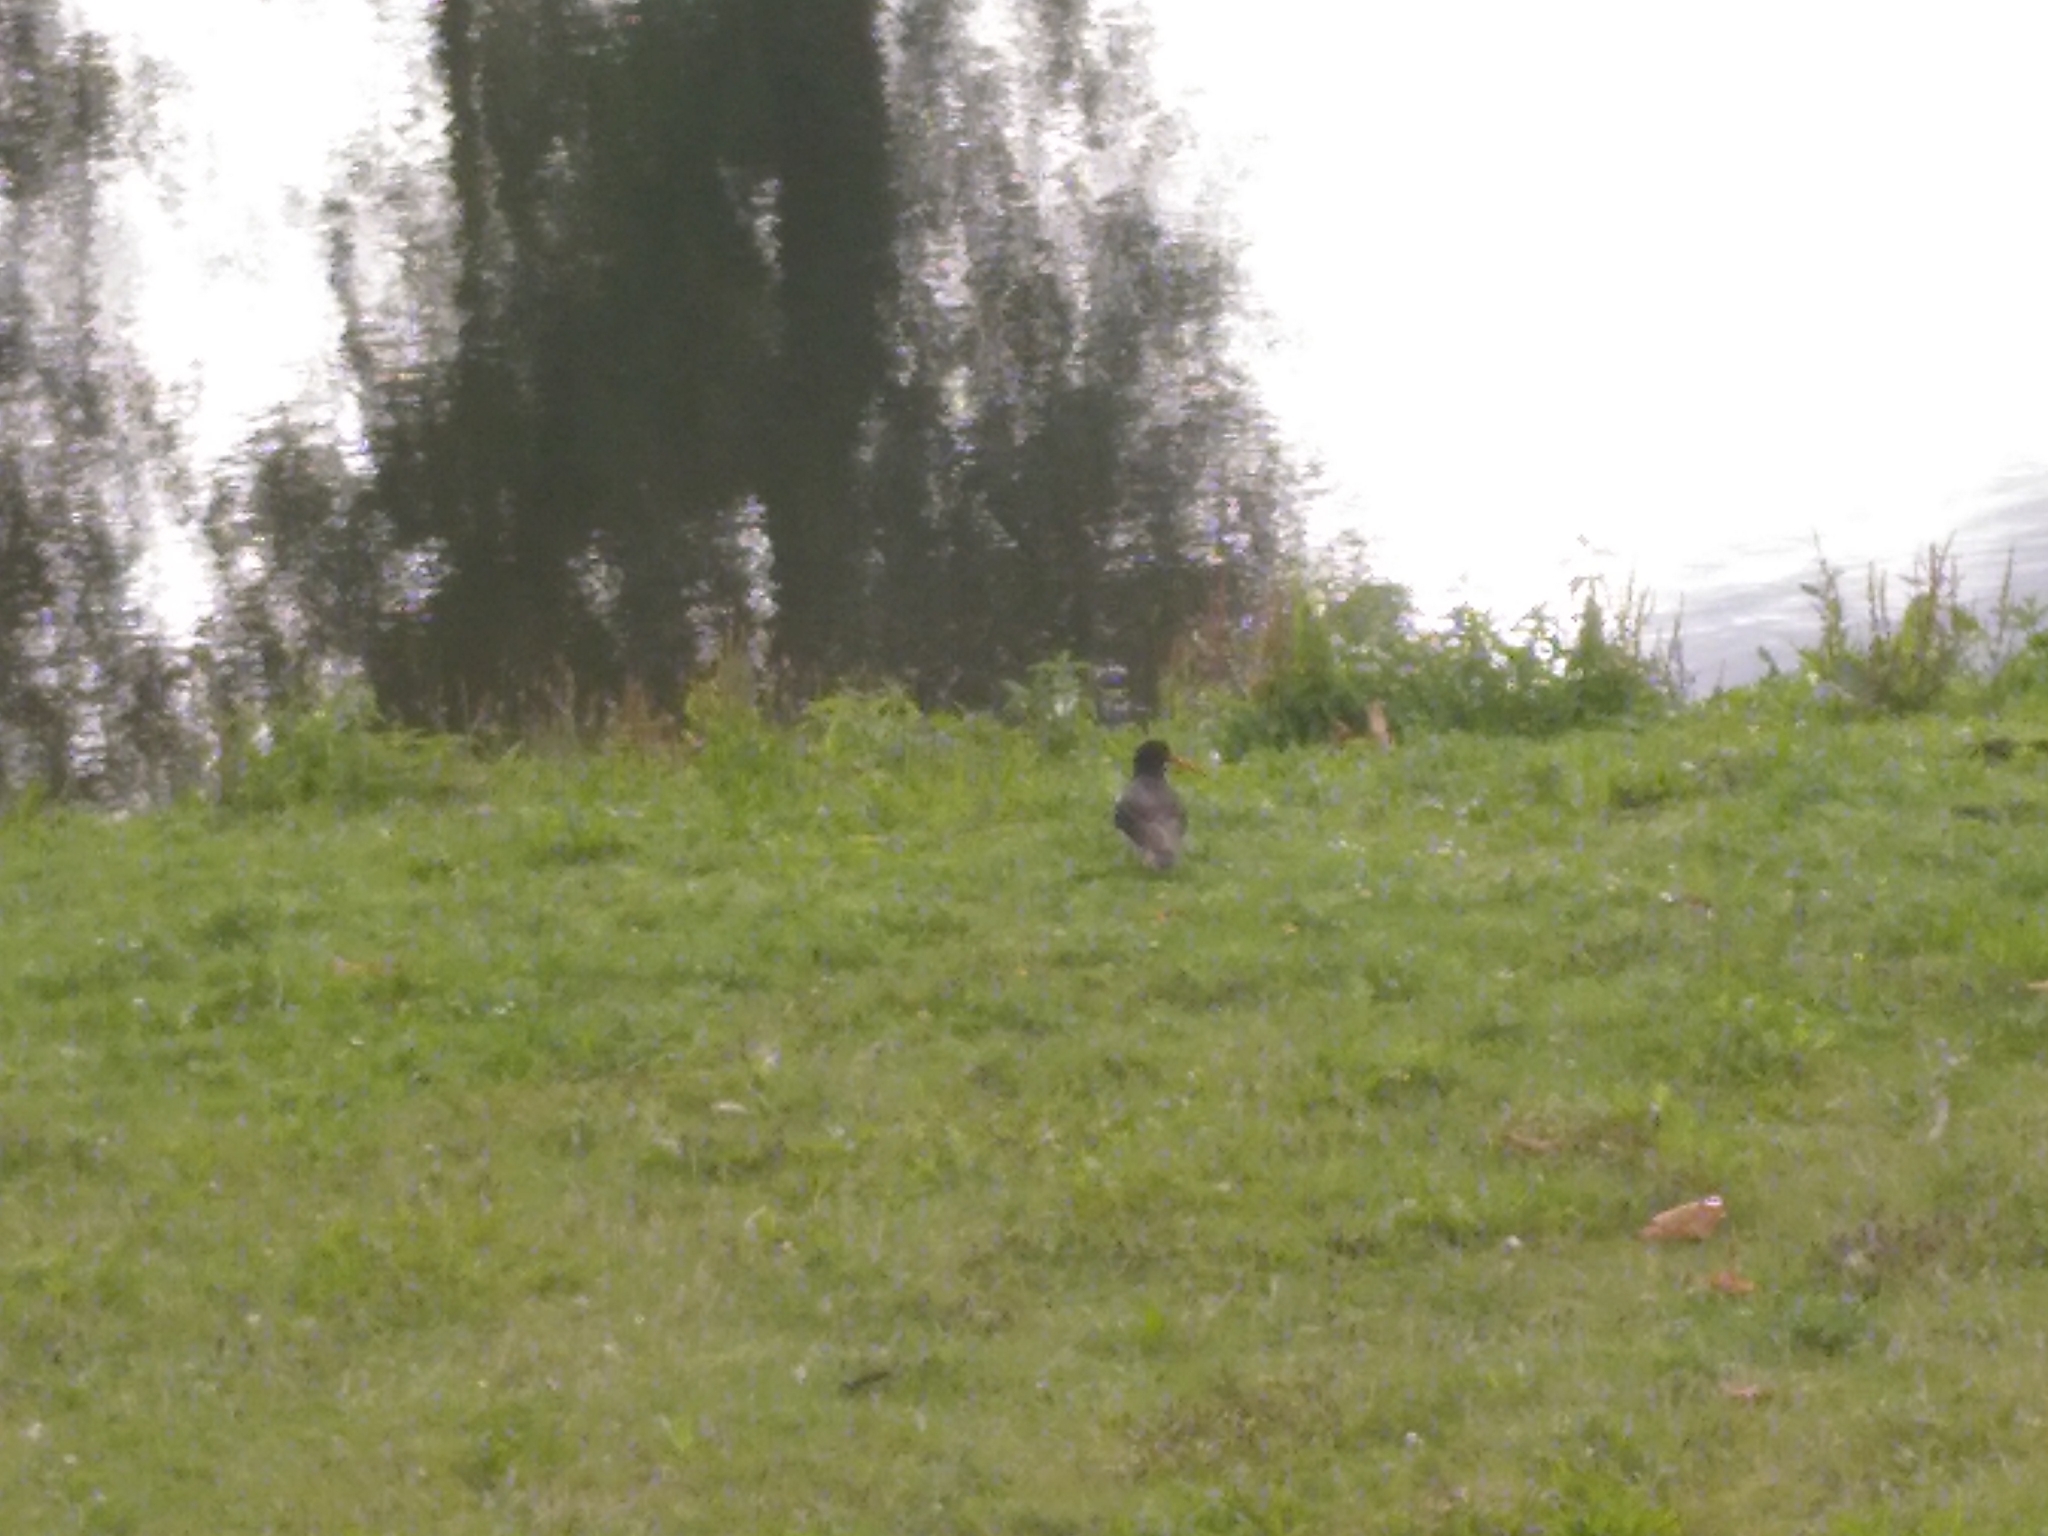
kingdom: Animalia
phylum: Chordata
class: Aves
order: Charadriiformes
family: Haematopodidae
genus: Haematopus
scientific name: Haematopus ostralegus
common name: Eurasian oystercatcher
